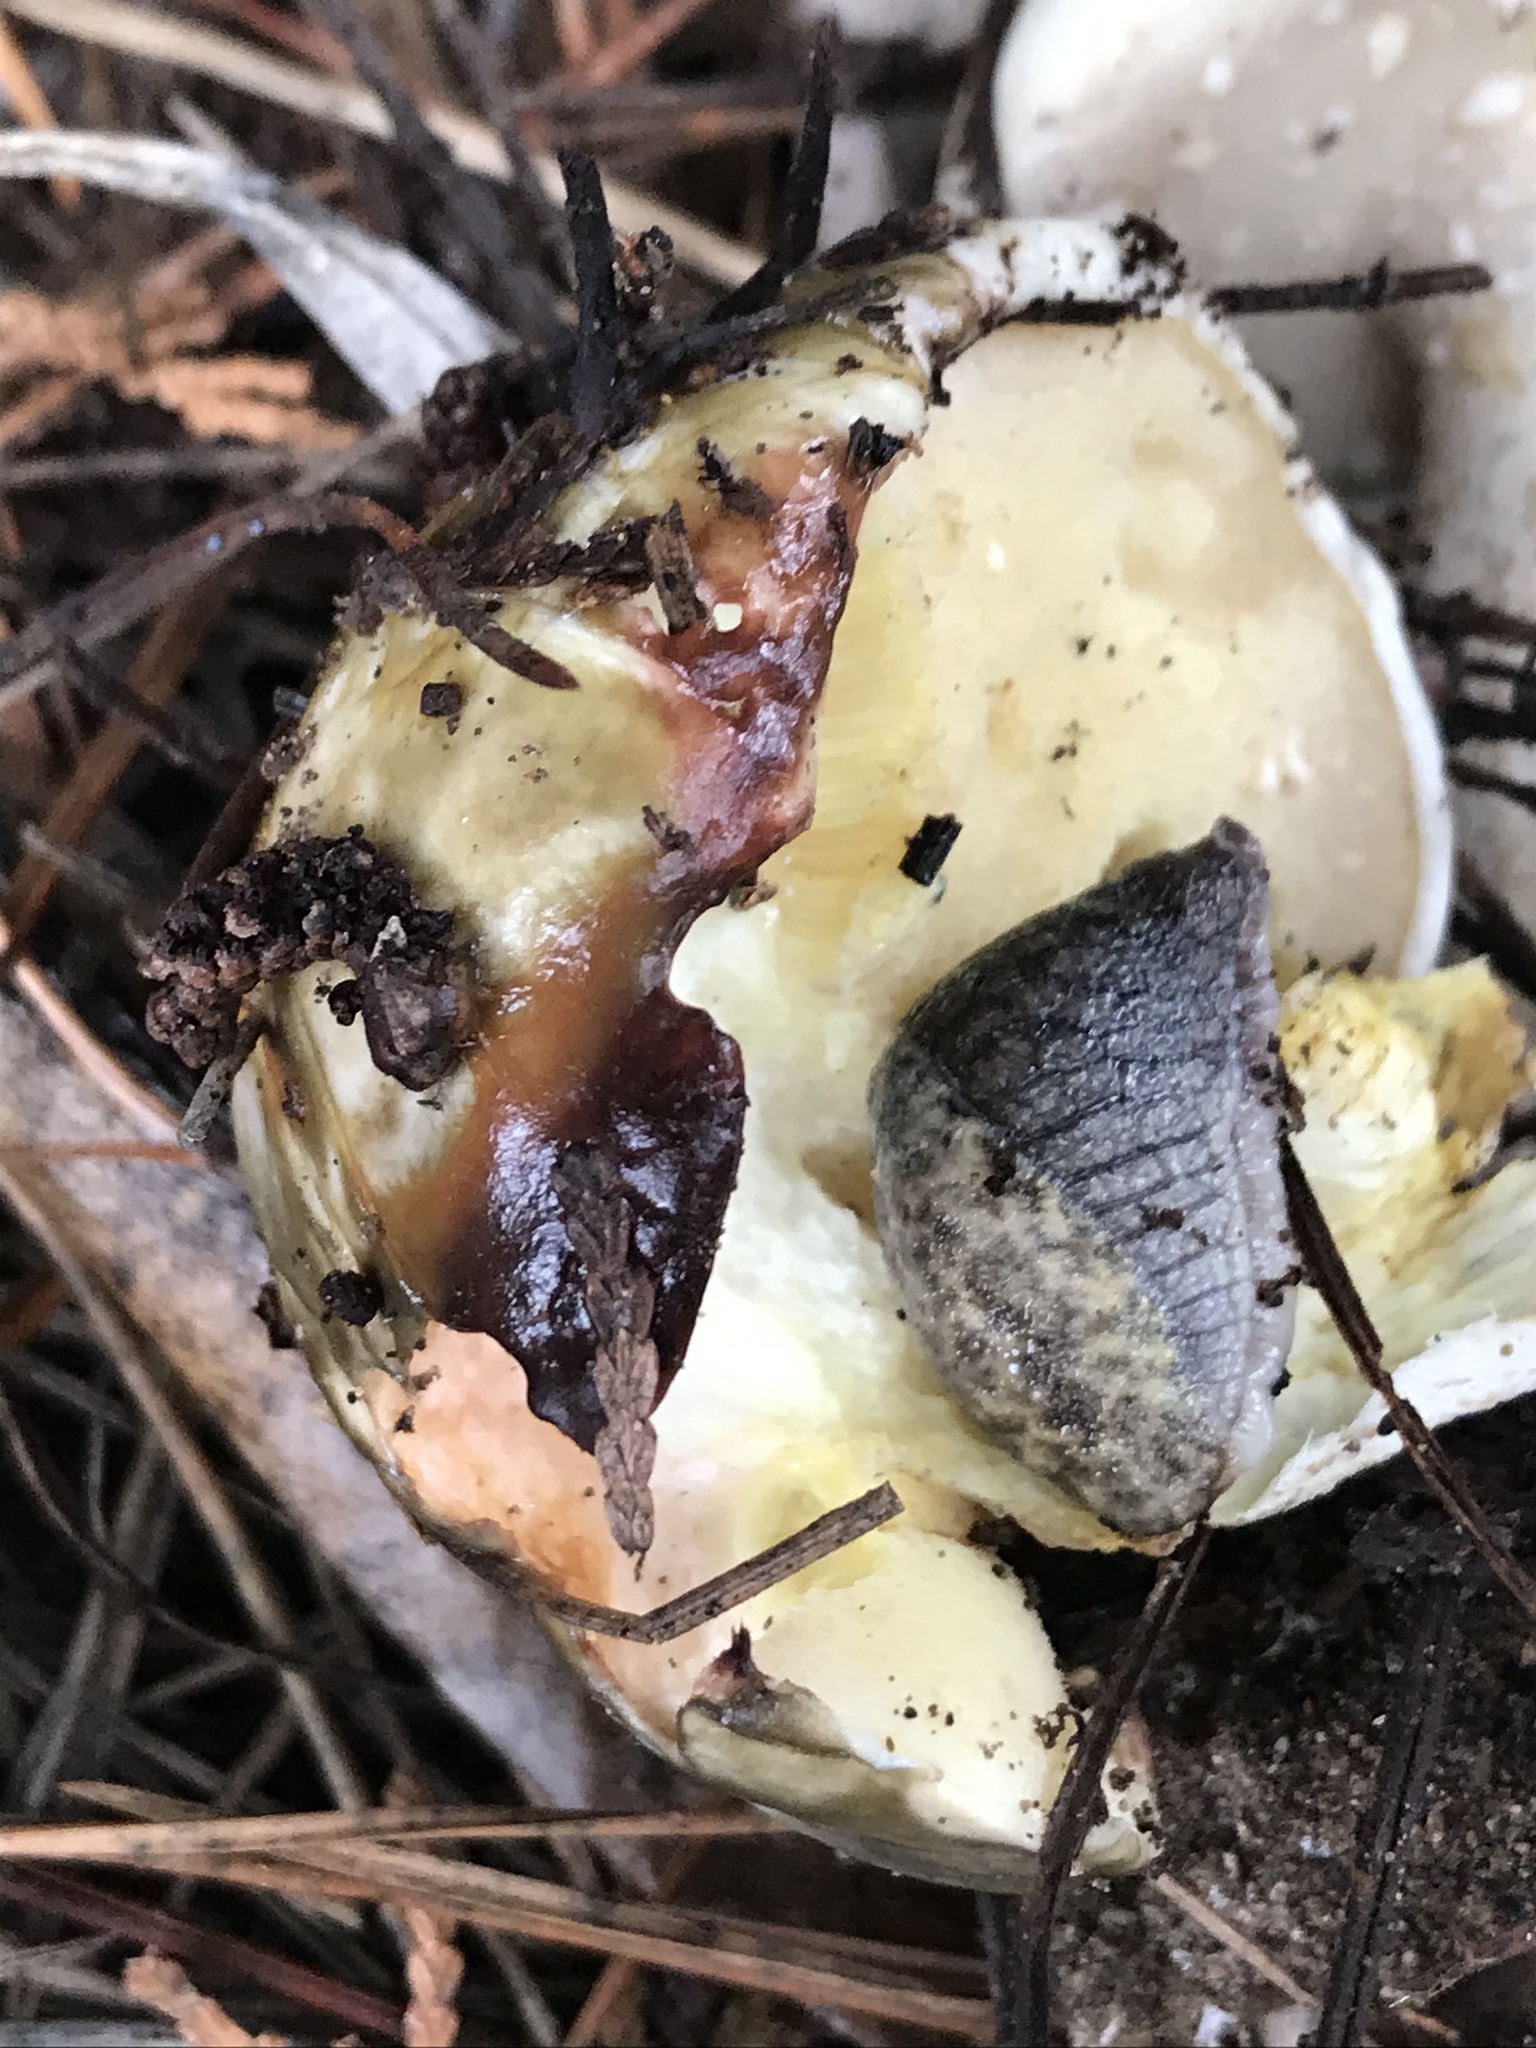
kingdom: Fungi
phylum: Basidiomycota
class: Agaricomycetes
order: Boletales
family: Suillaceae
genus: Suillus
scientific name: Suillus pungens
